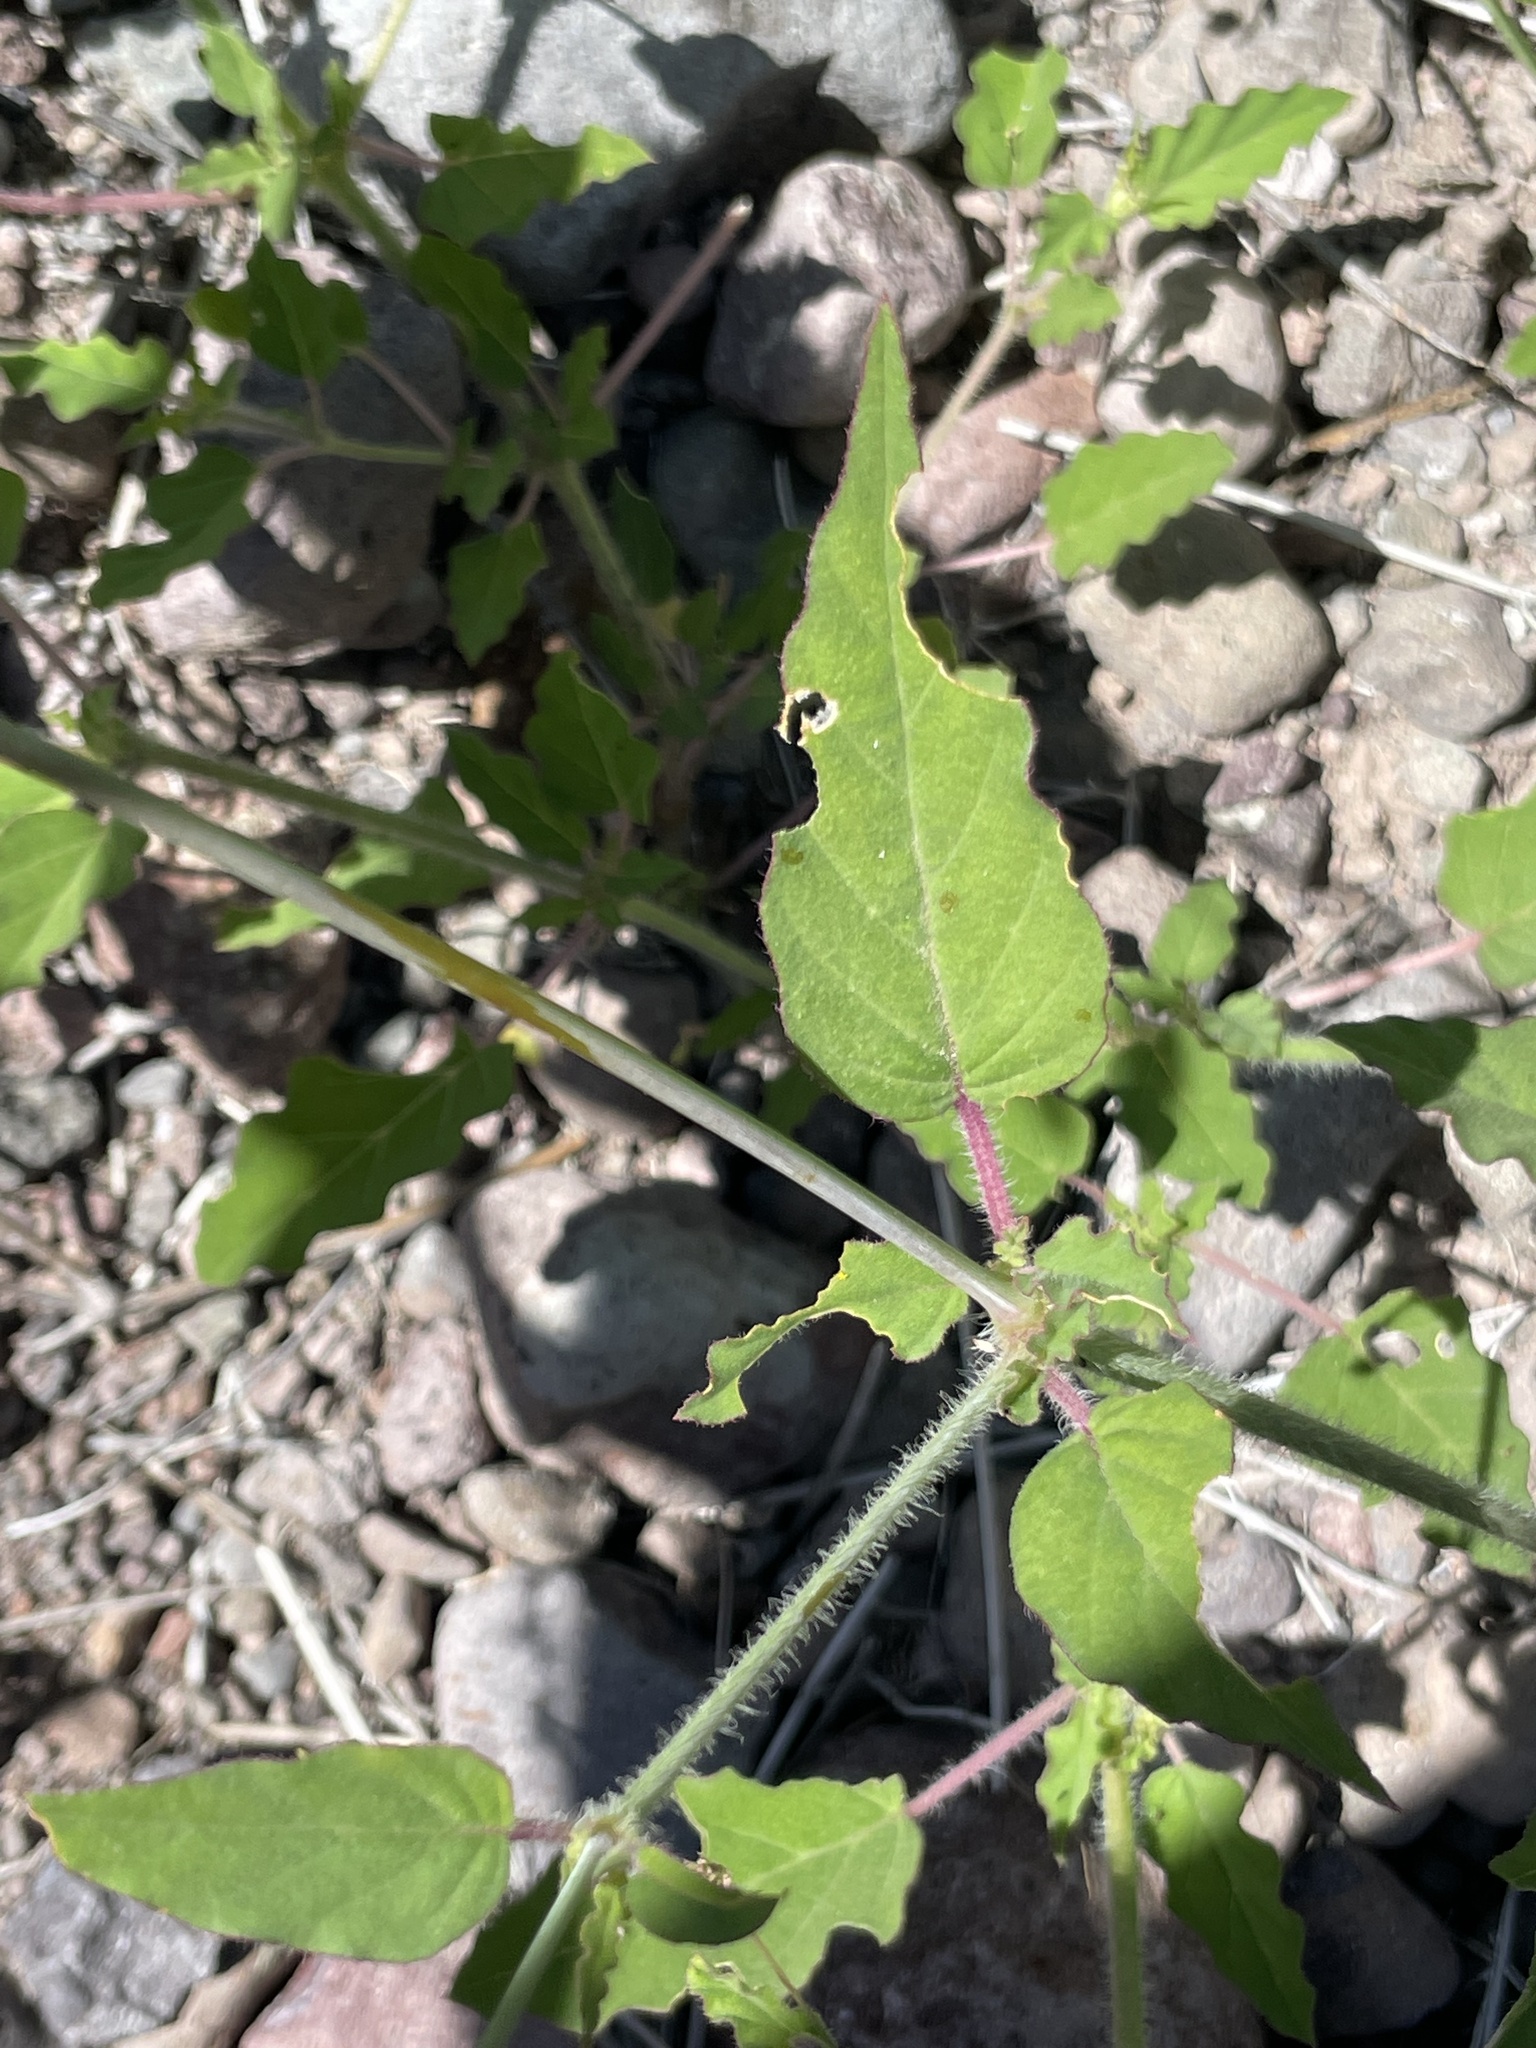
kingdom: Plantae
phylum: Tracheophyta
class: Magnoliopsida
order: Caryophyllales
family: Nyctaginaceae
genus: Boerhavia
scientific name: Boerhavia xantii
